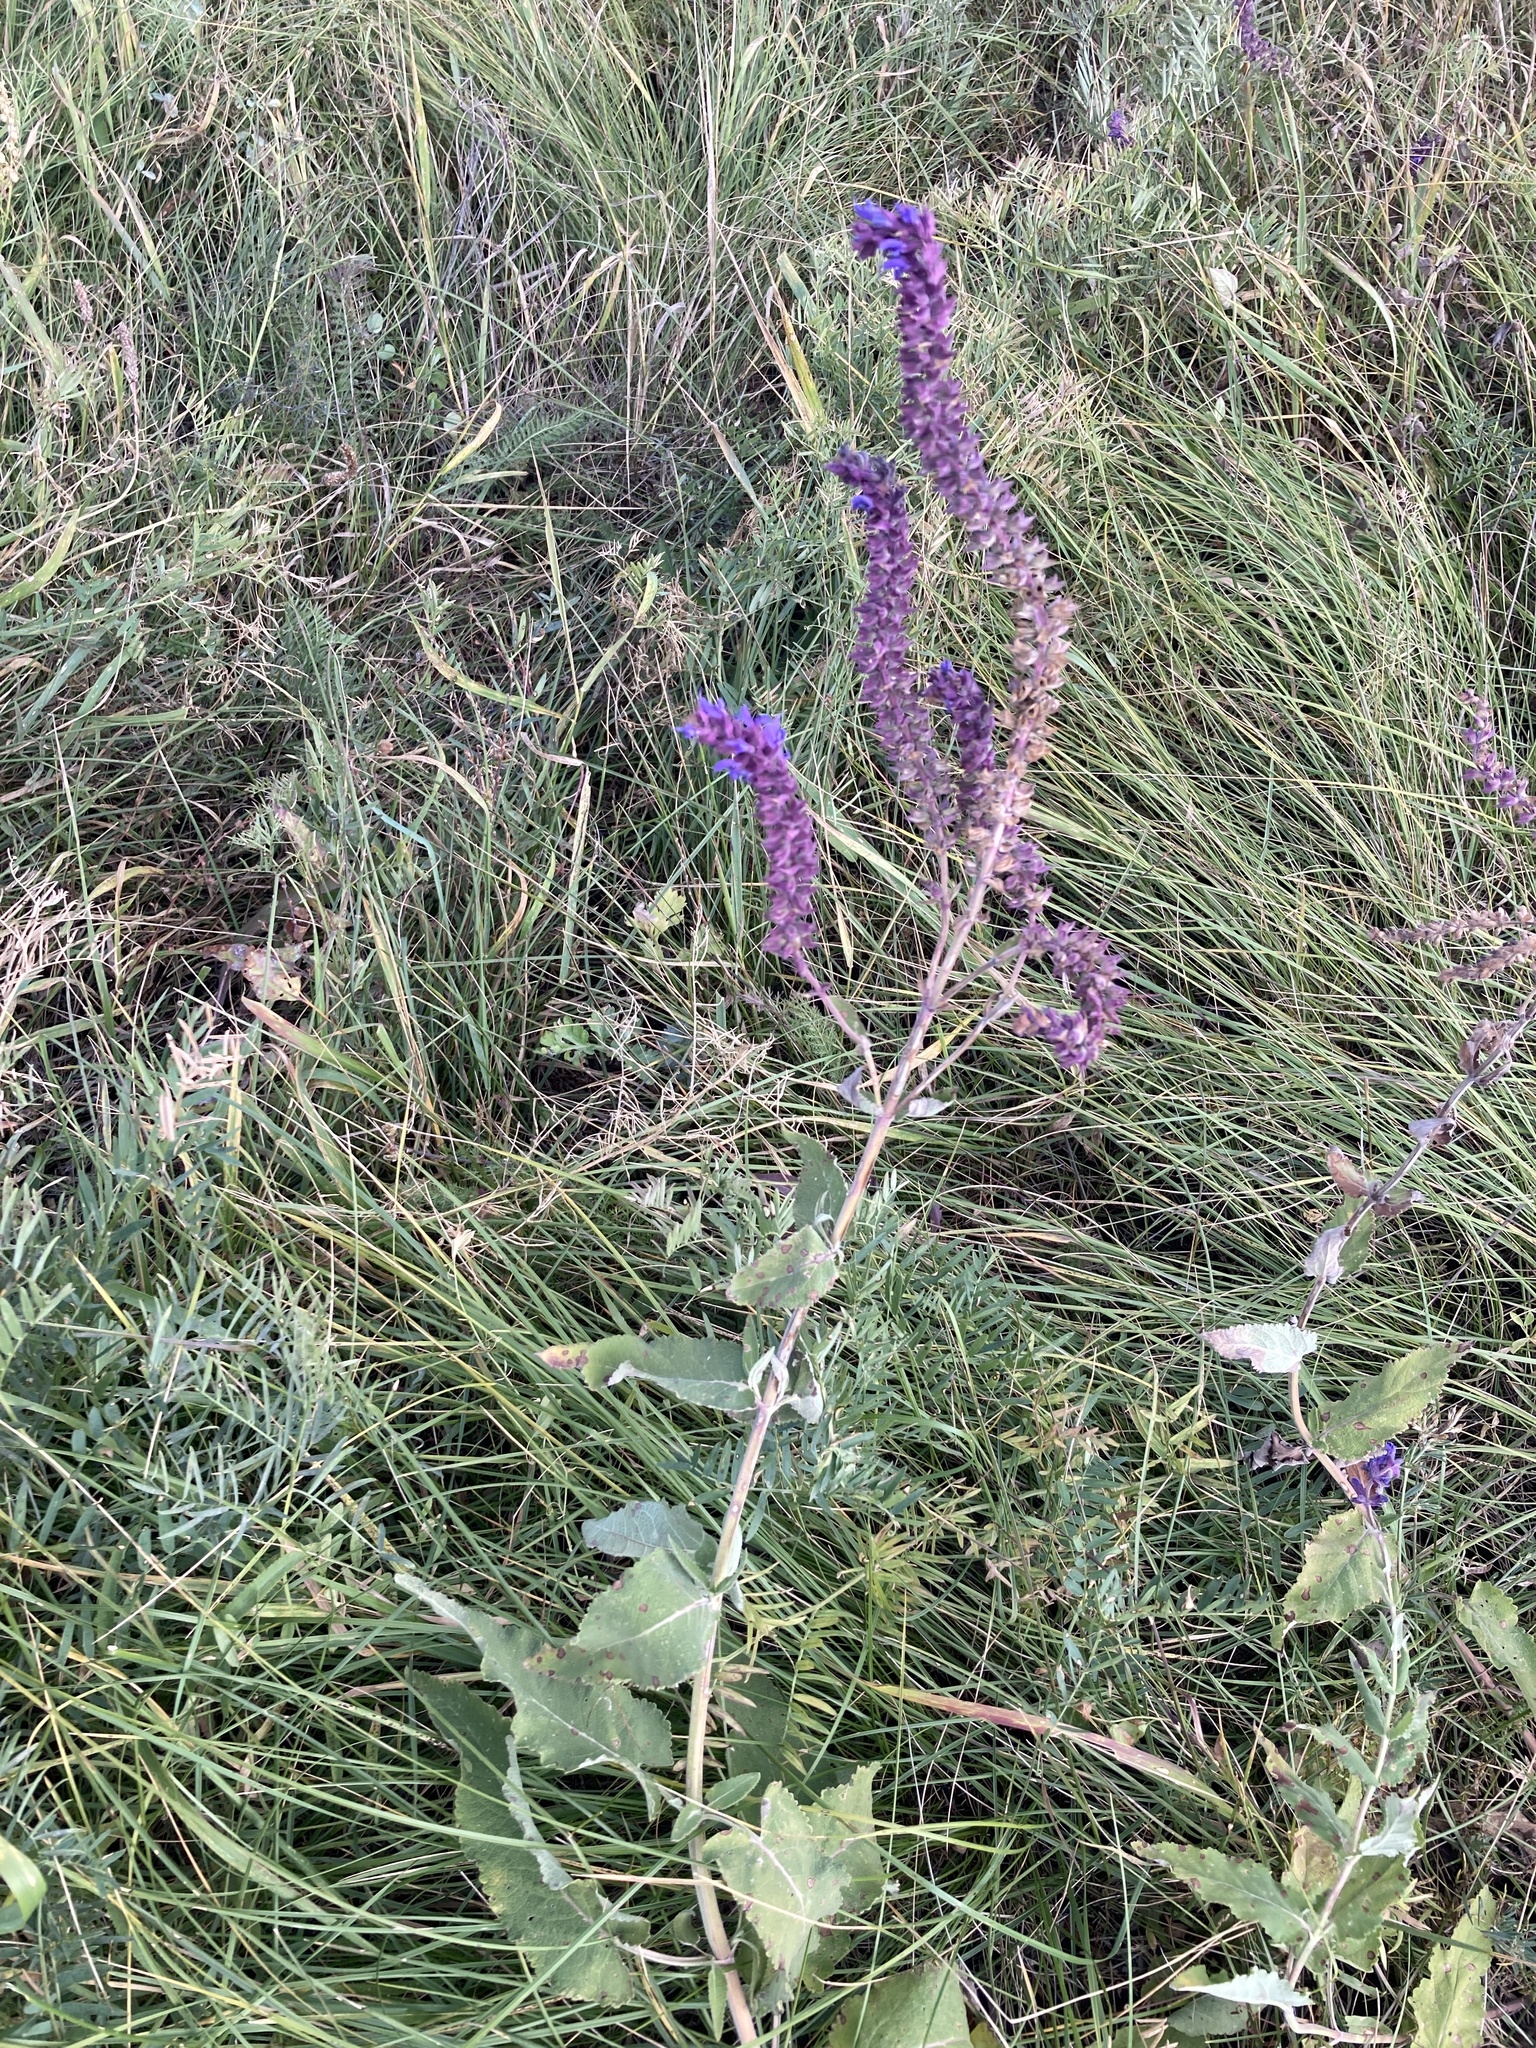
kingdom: Plantae
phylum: Tracheophyta
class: Magnoliopsida
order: Lamiales
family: Lamiaceae
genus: Salvia
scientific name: Salvia nemorosa
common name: Balkan clary
